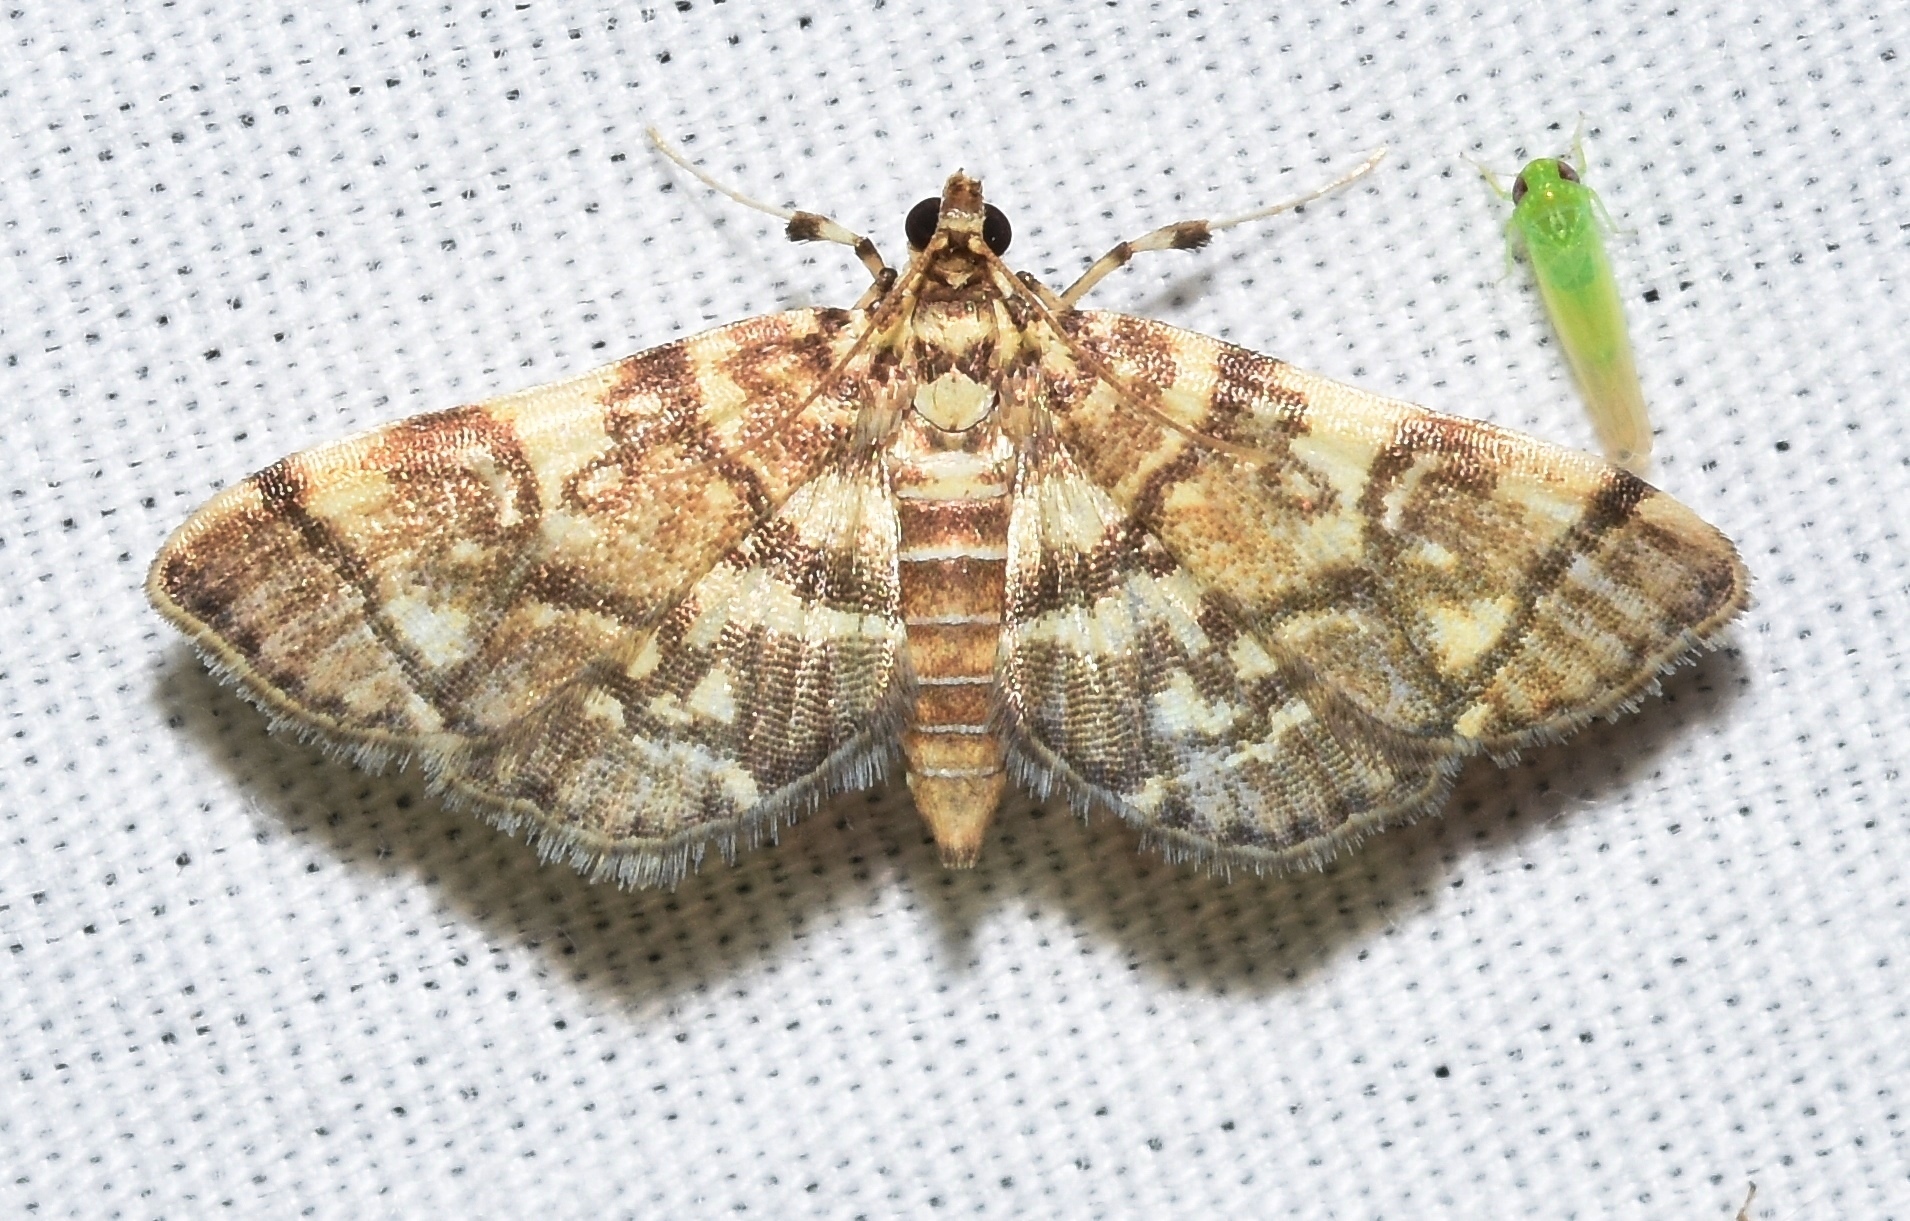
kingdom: Animalia
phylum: Arthropoda
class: Insecta
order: Lepidoptera
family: Crambidae
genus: Apogeshna
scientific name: Apogeshna stenialis
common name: Checkered apogeshna moth
